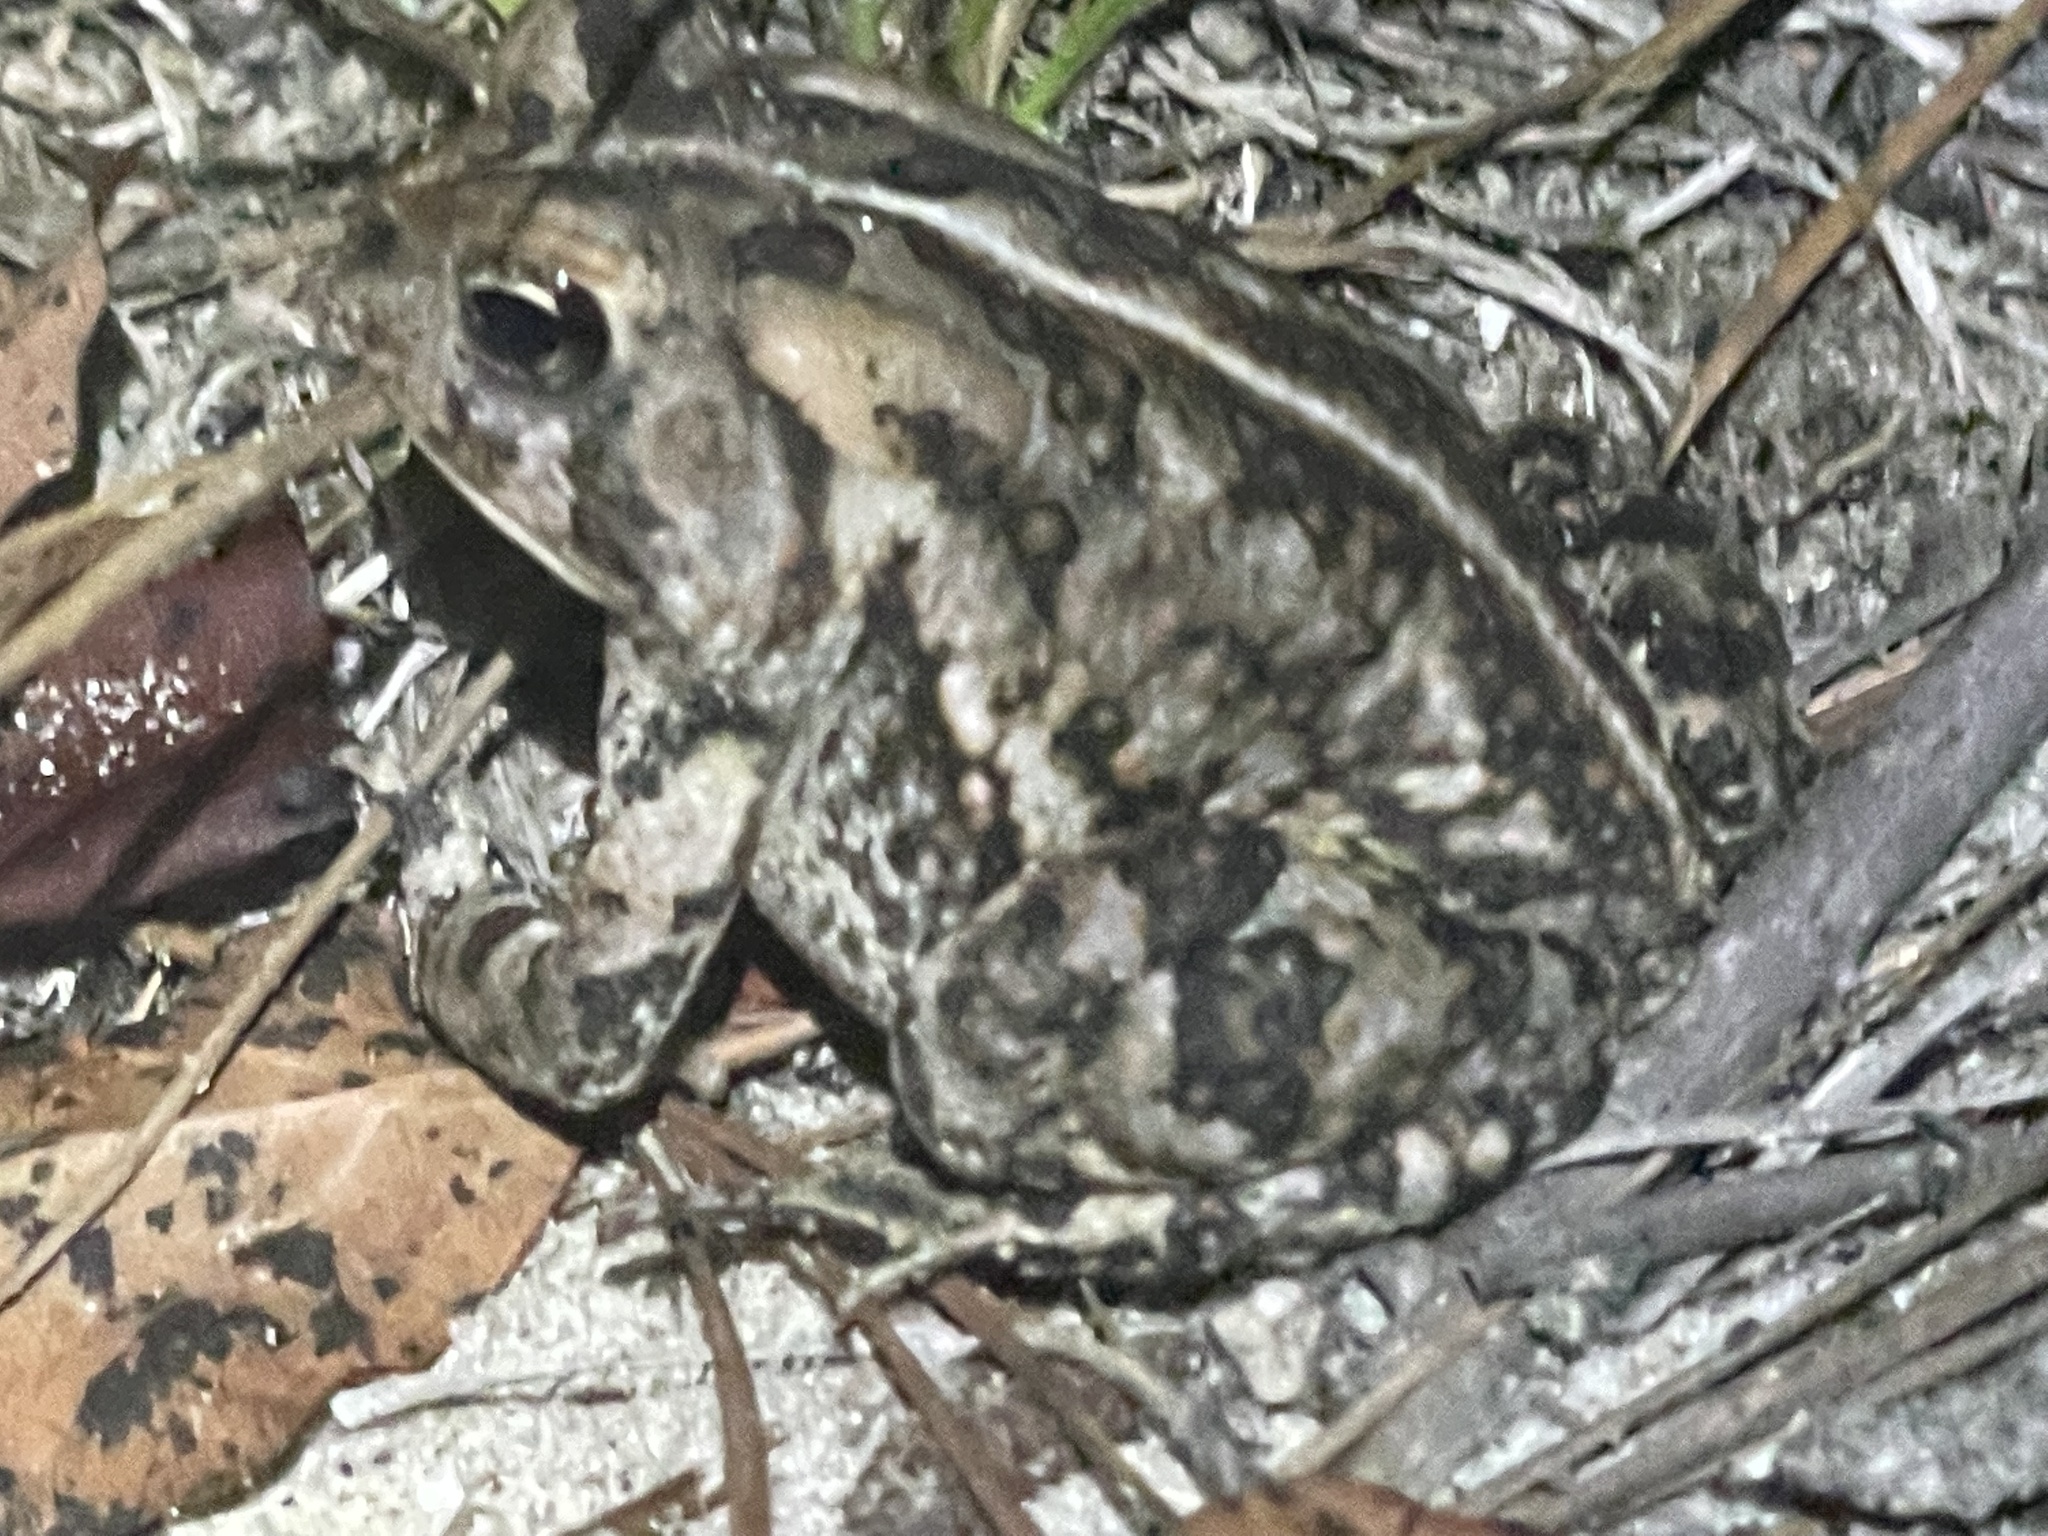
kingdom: Animalia
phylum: Chordata
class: Amphibia
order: Anura
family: Bufonidae
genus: Anaxyrus
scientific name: Anaxyrus fowleri
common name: Fowler's toad
